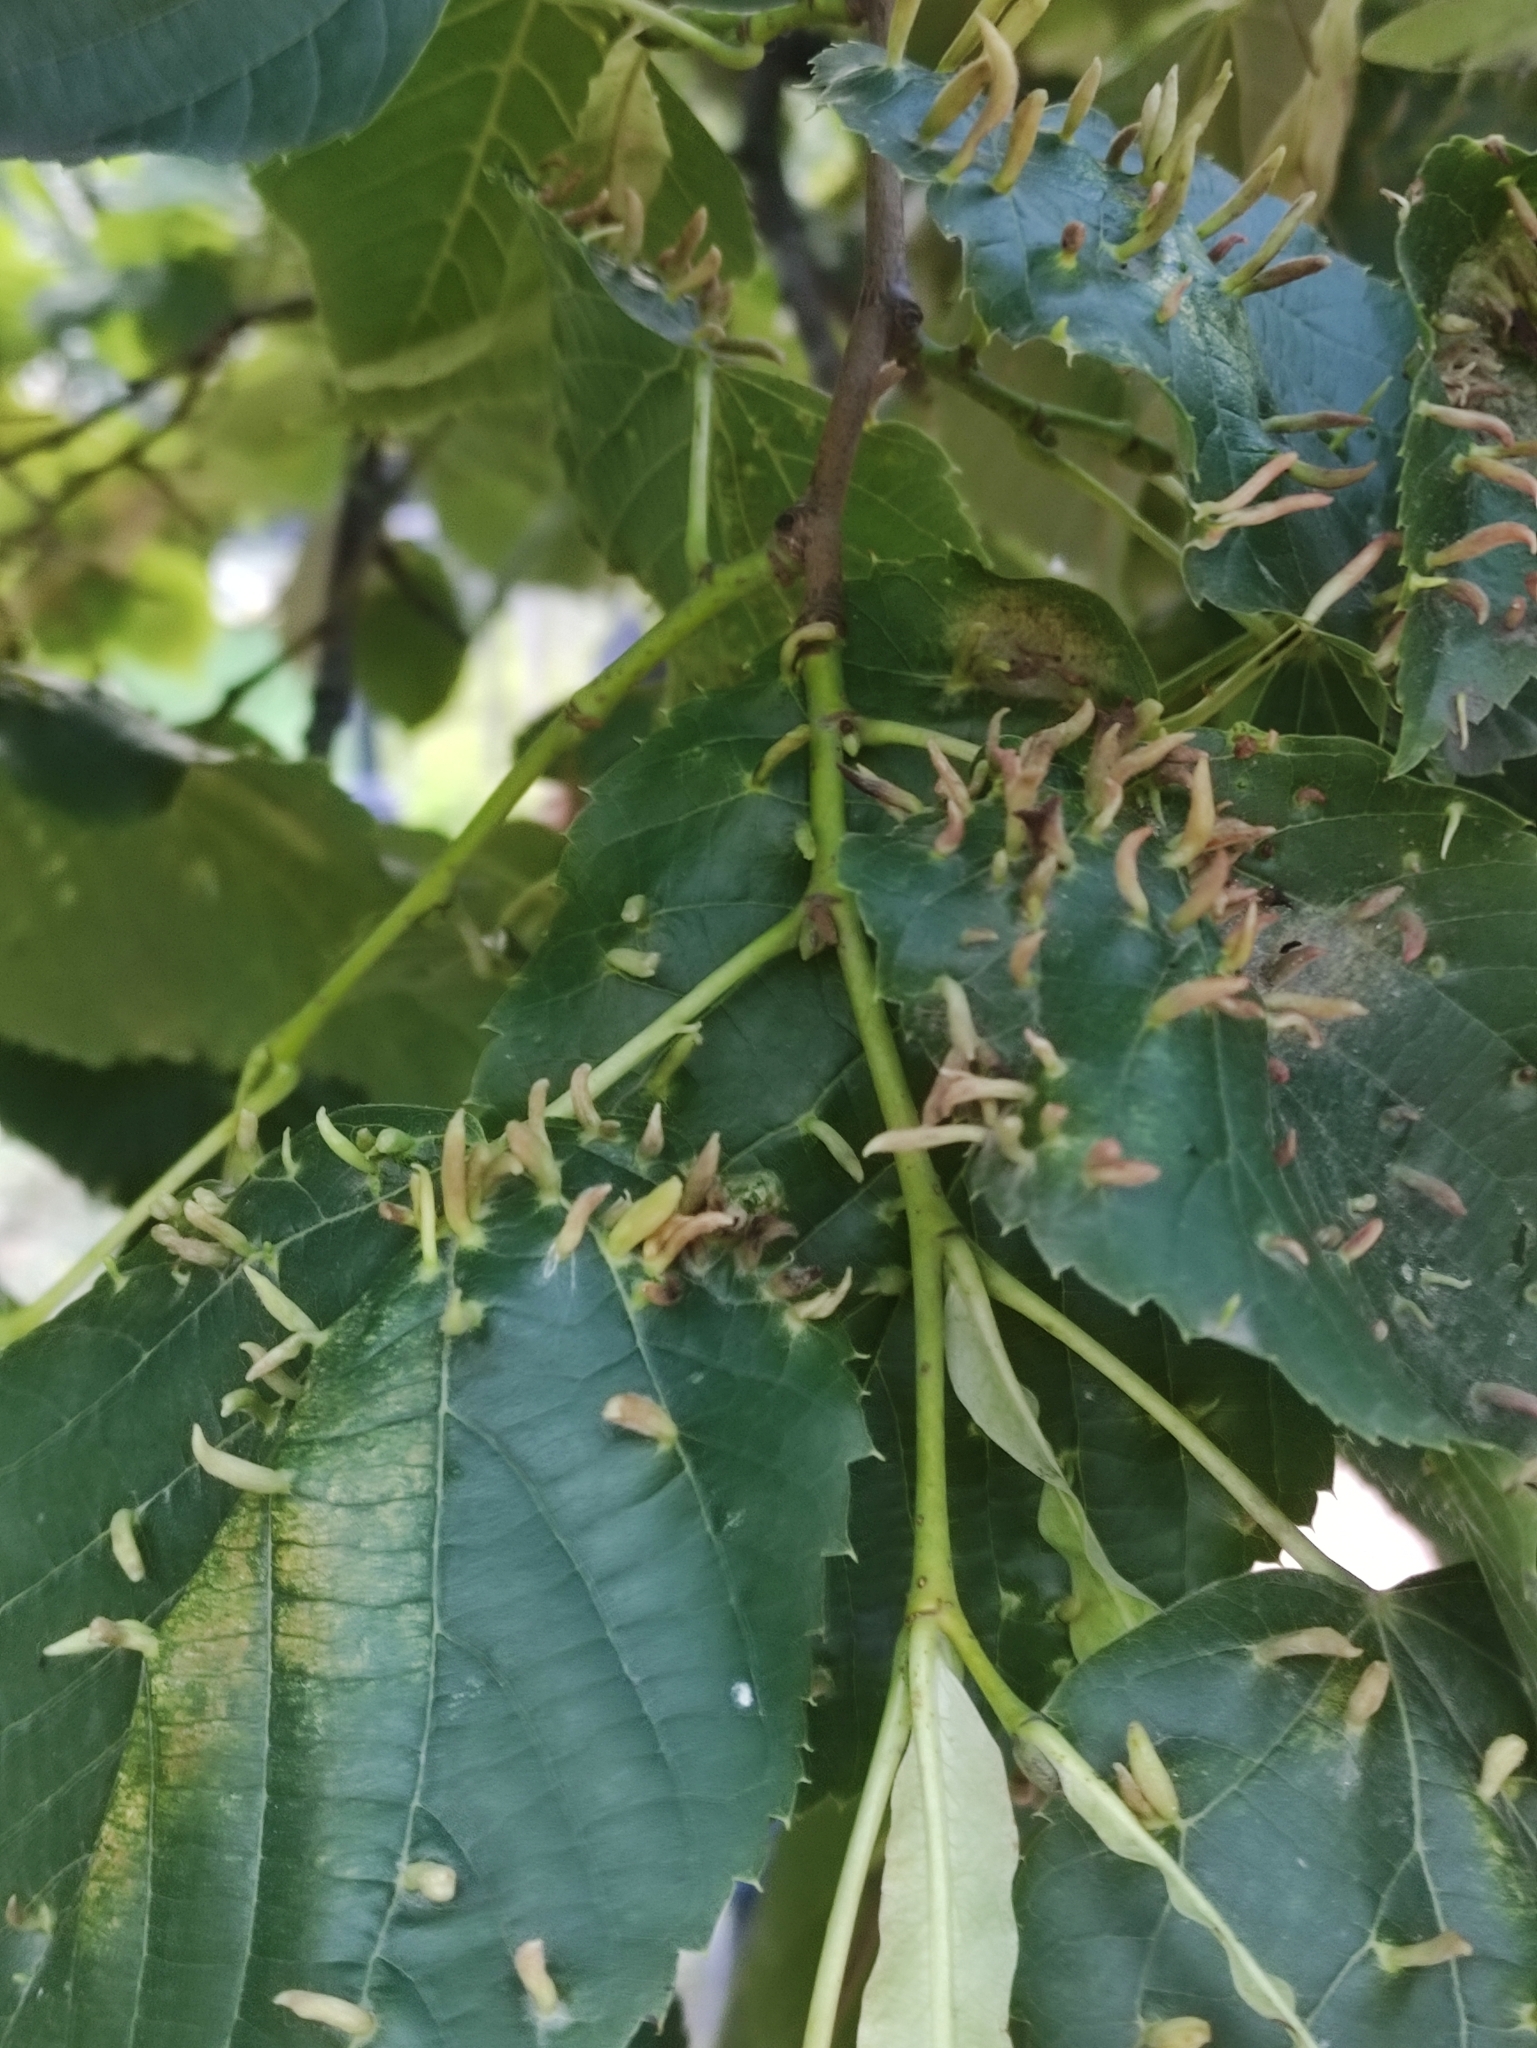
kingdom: Animalia
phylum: Arthropoda
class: Arachnida
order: Trombidiformes
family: Eriophyidae
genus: Eriophyes
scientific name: Eriophyes tiliae
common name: Red nail gall mite
